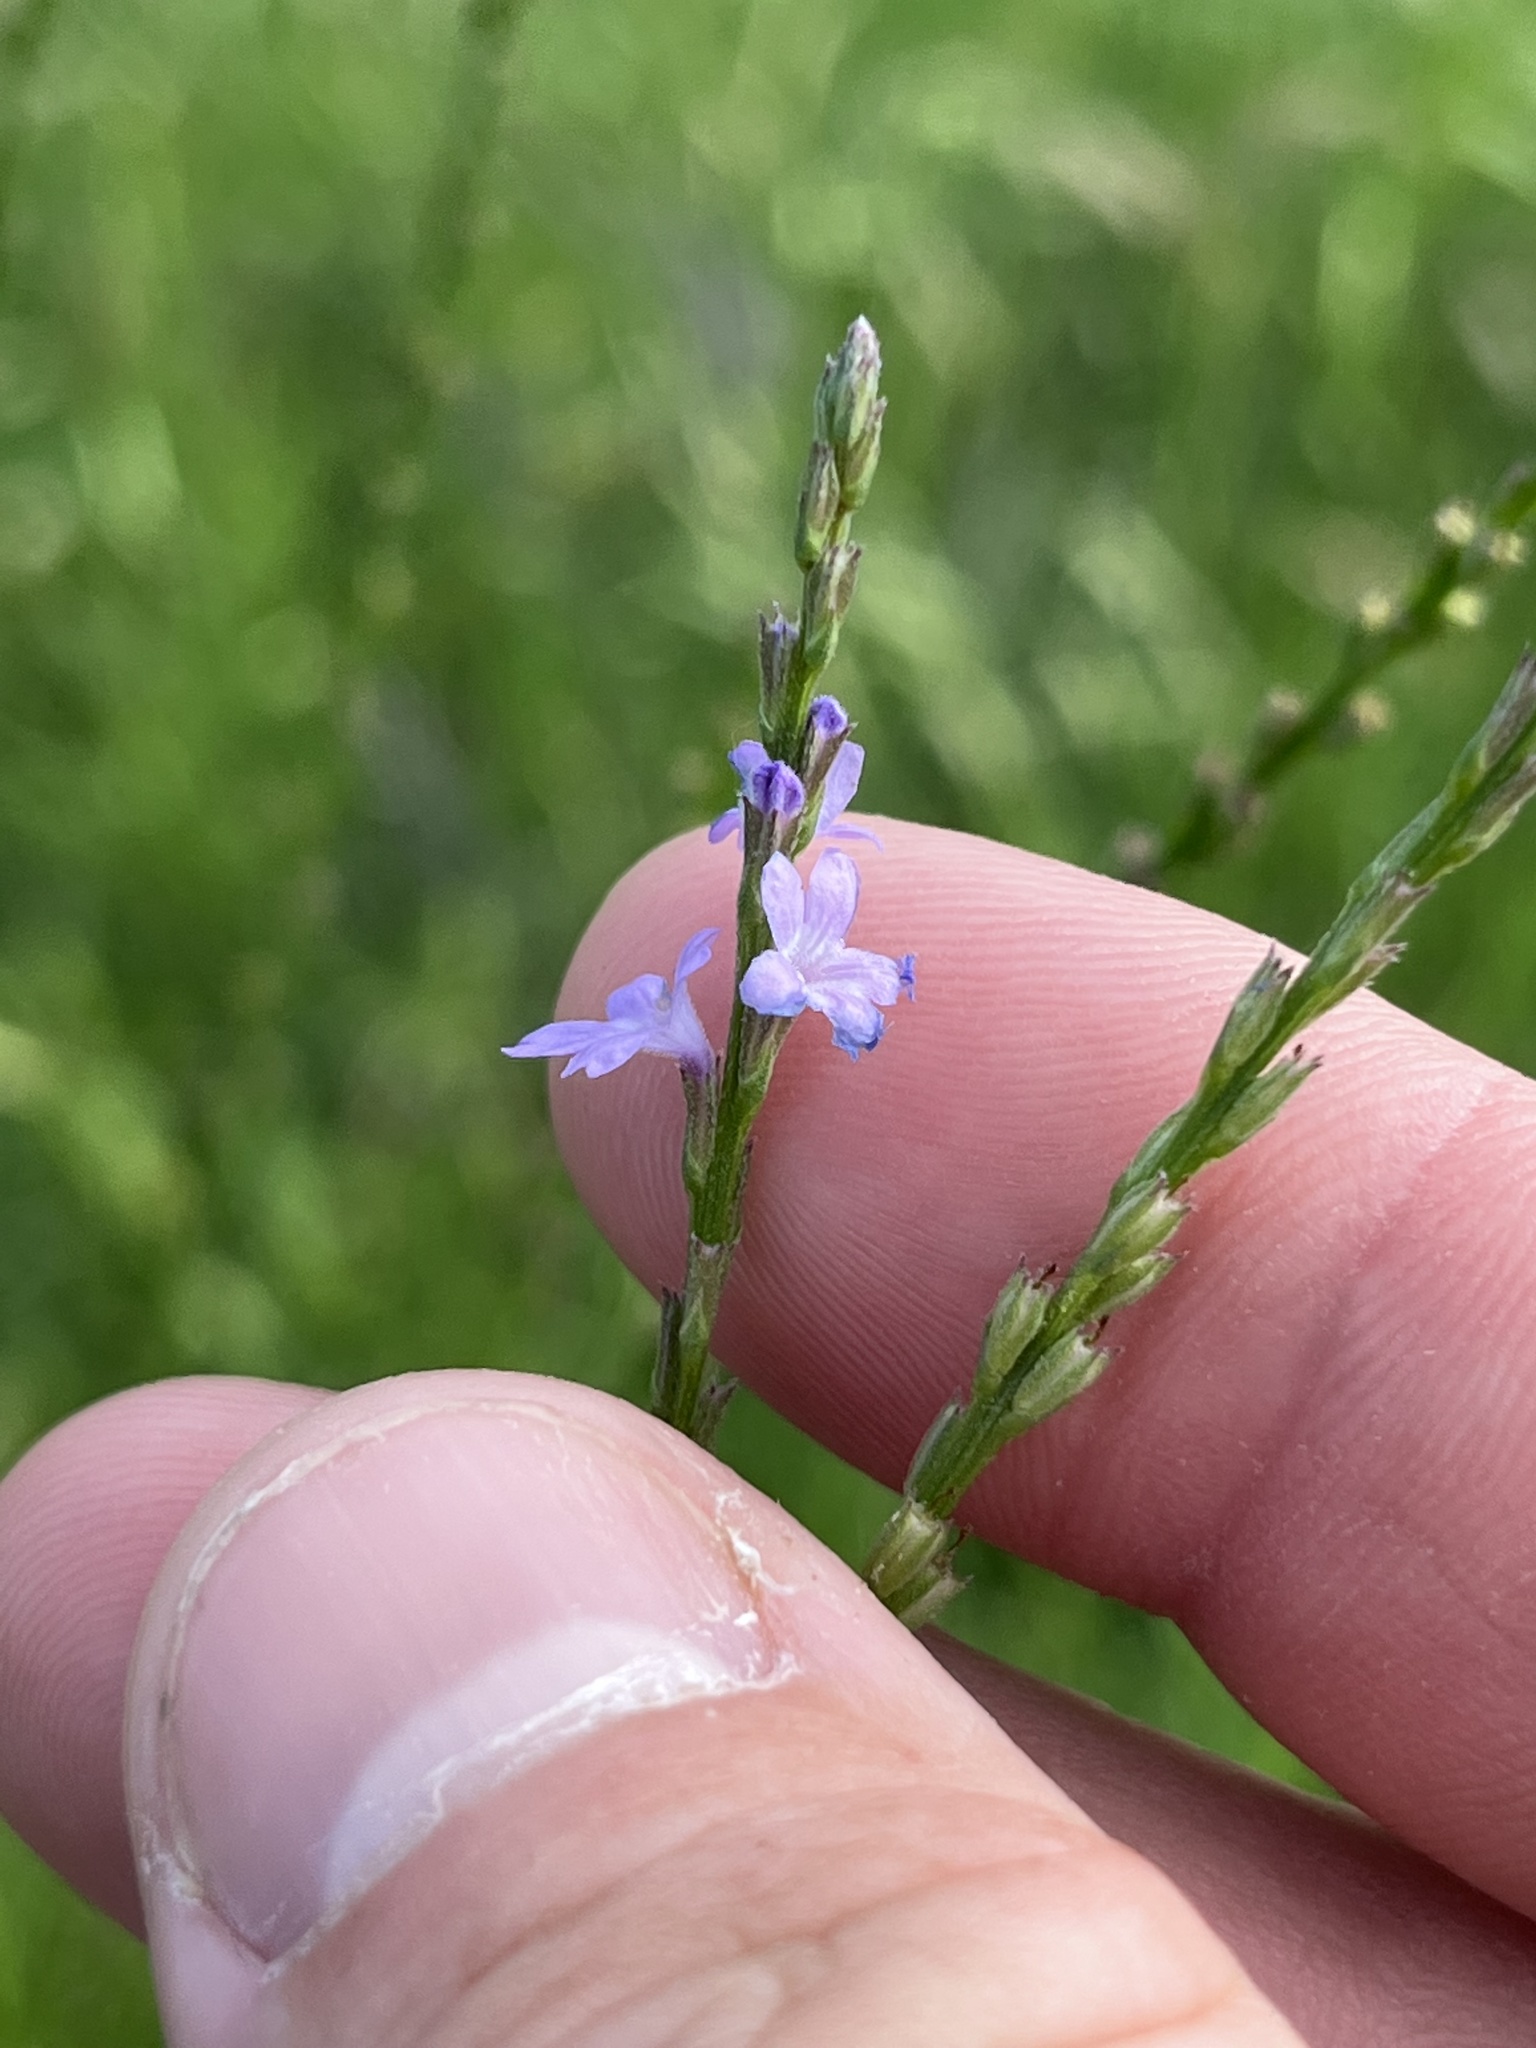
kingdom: Plantae
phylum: Tracheophyta
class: Magnoliopsida
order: Lamiales
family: Verbenaceae
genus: Verbena
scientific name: Verbena halei
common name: Texas vervain
